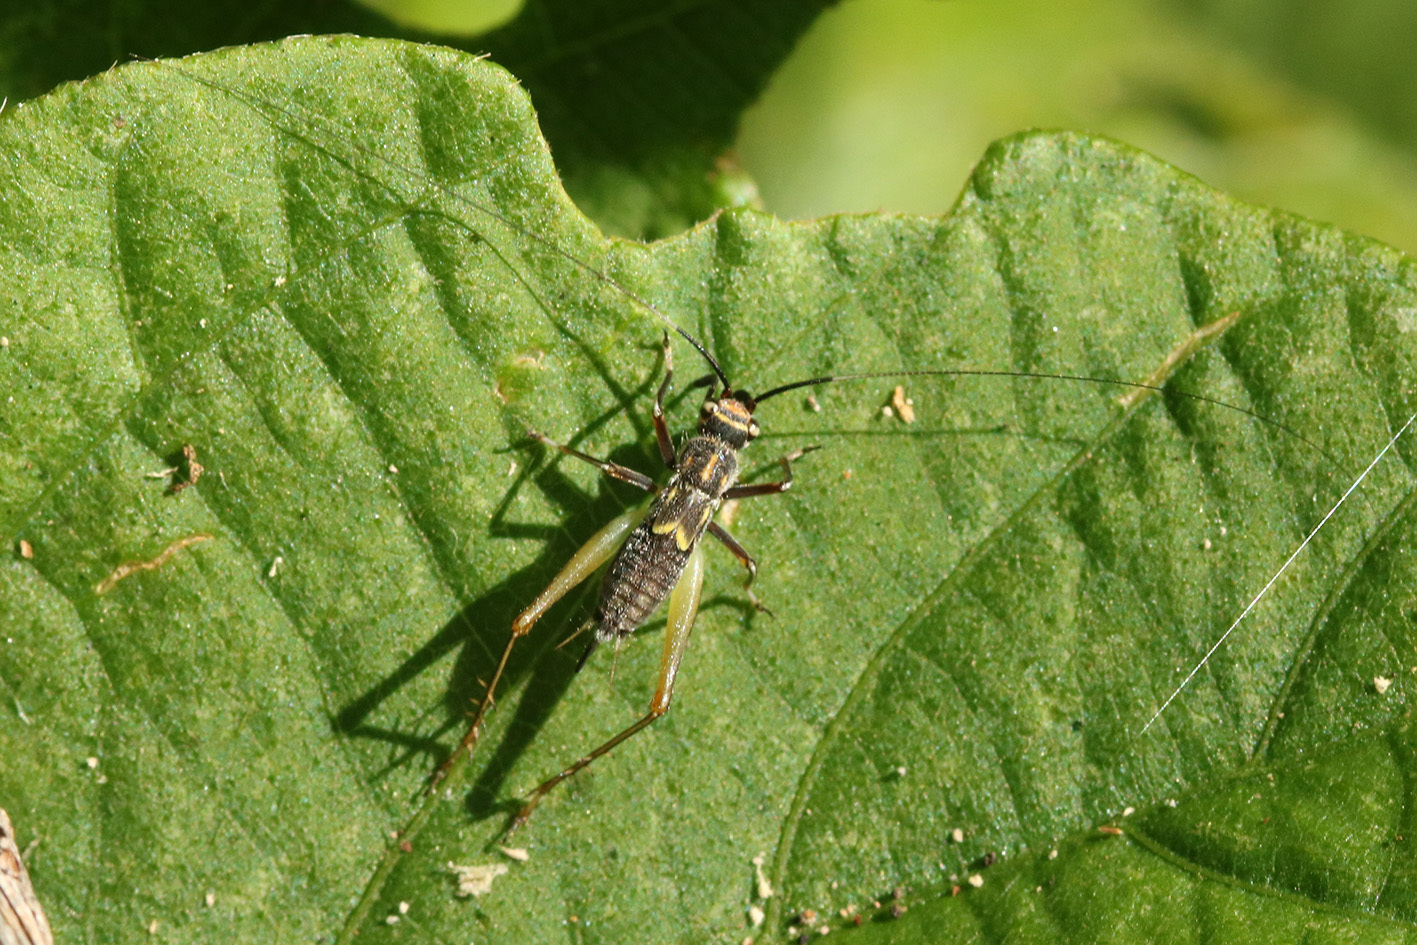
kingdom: Animalia
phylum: Arthropoda
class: Insecta
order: Orthoptera
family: Trigonidiidae
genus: Phylloscyrtus
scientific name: Phylloscyrtus amoenus
